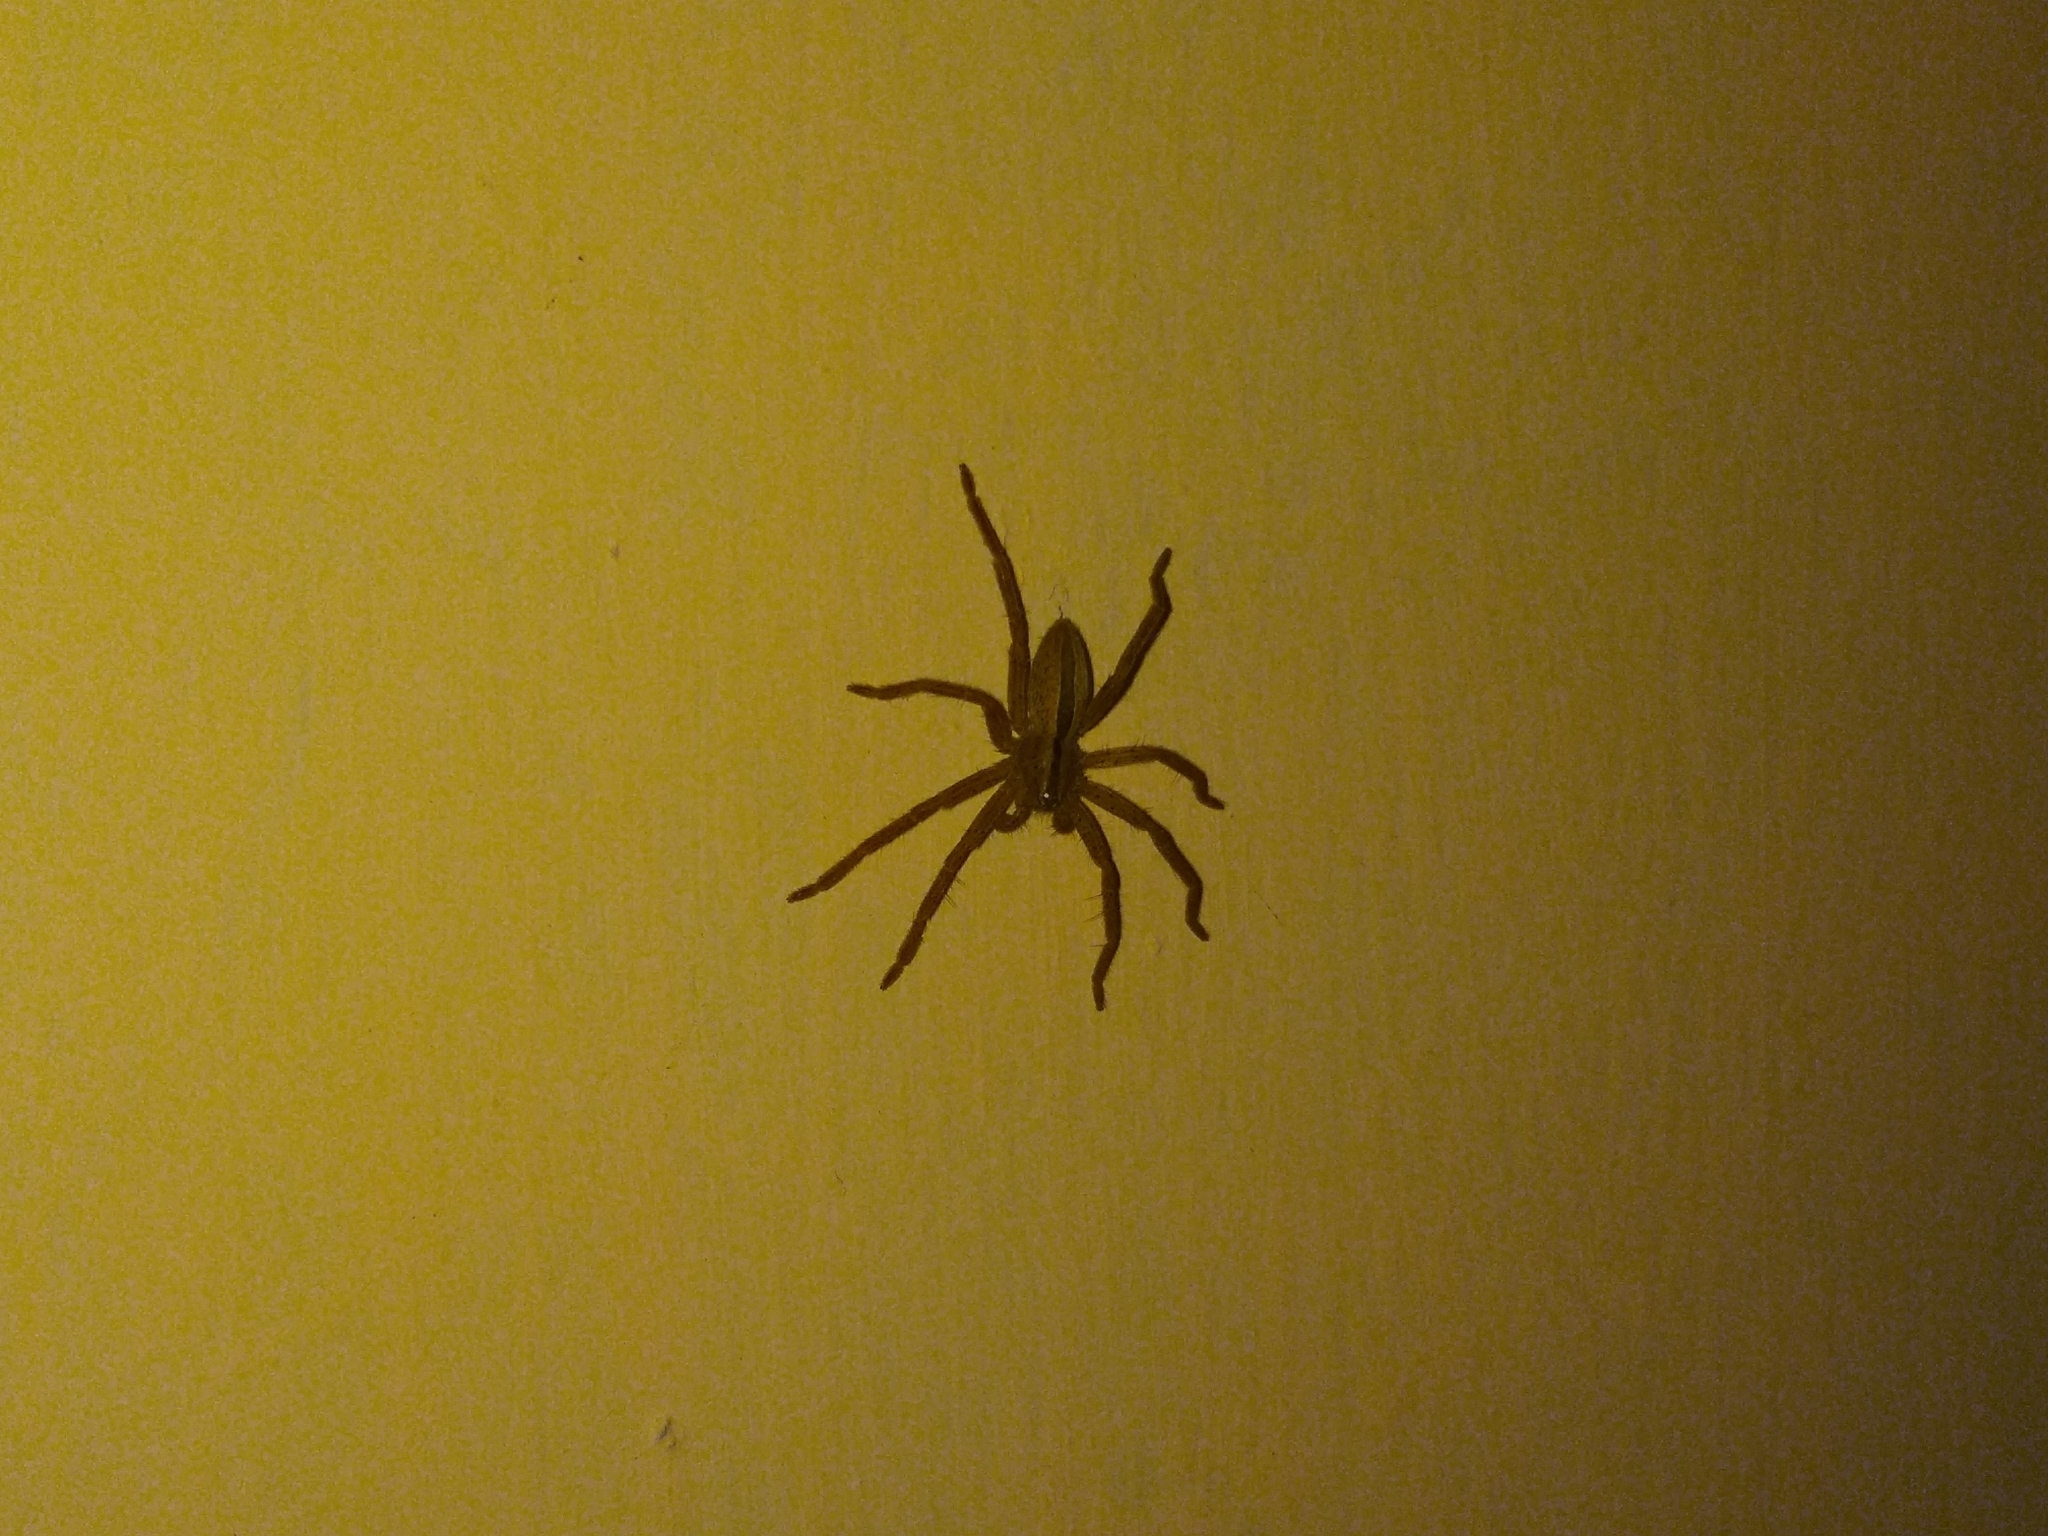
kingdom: Animalia
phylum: Arthropoda
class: Arachnida
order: Araneae
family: Sparassidae
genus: Micrommata
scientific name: Micrommata ligurina
